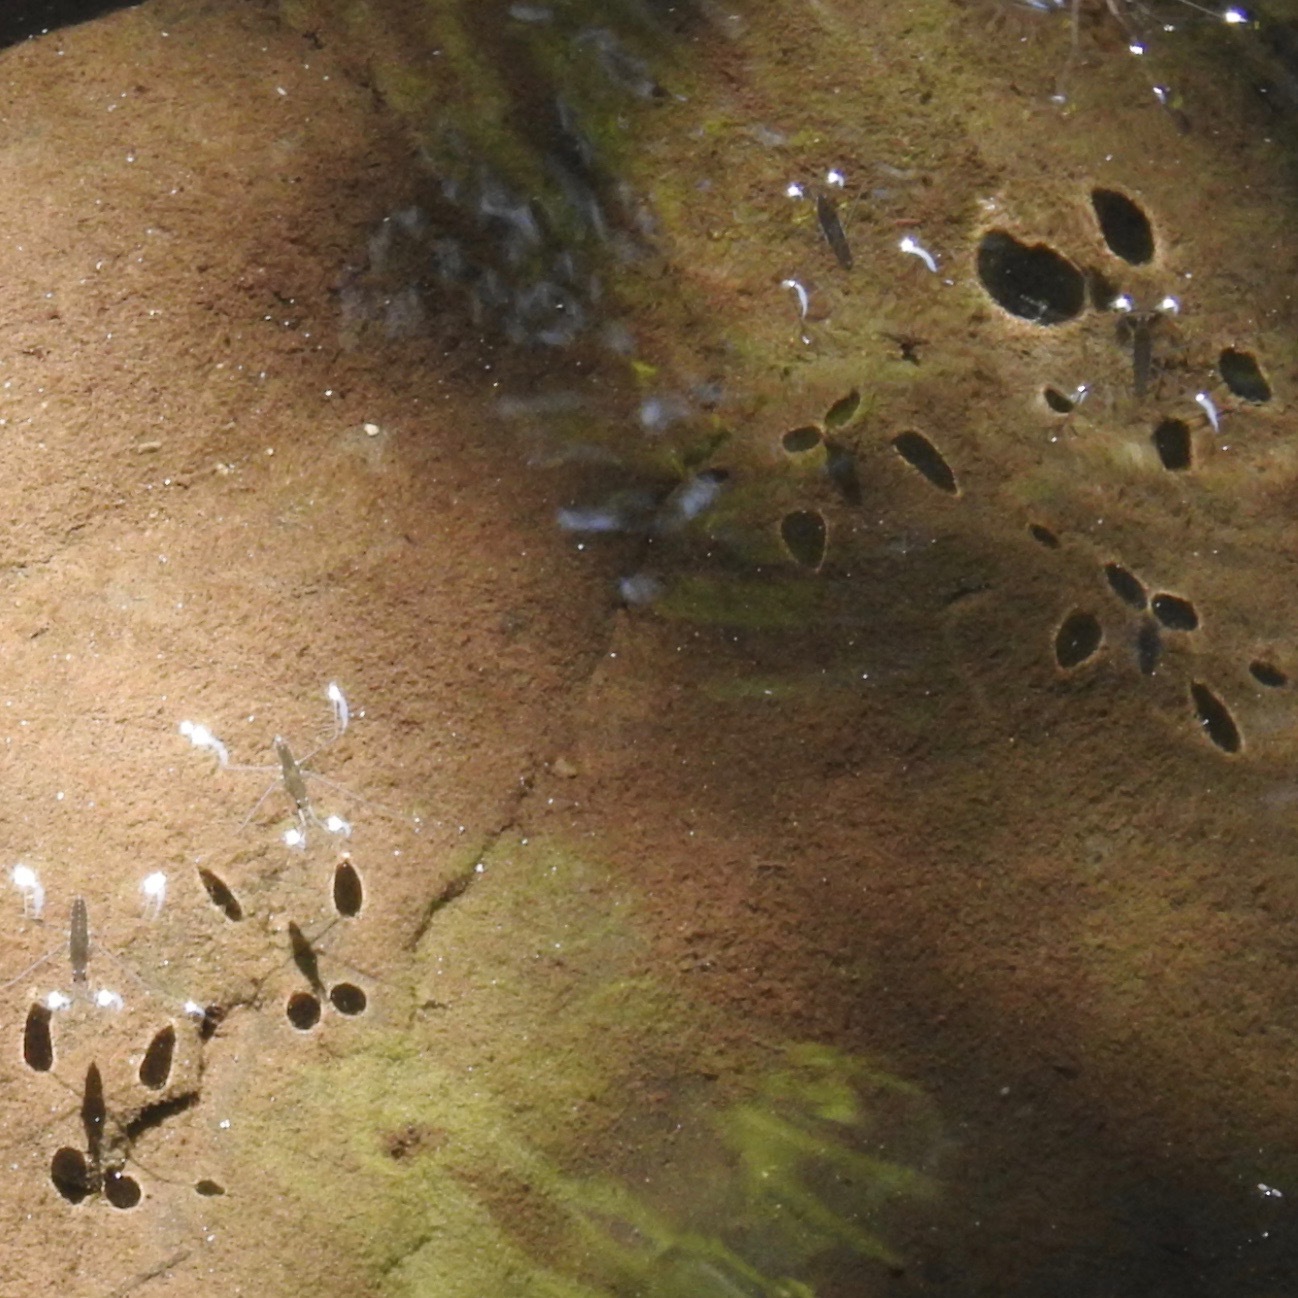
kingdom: Animalia
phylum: Arthropoda
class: Insecta
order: Hemiptera
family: Gerridae
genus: Aquarius
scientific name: Aquarius remigis
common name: Common water strider
